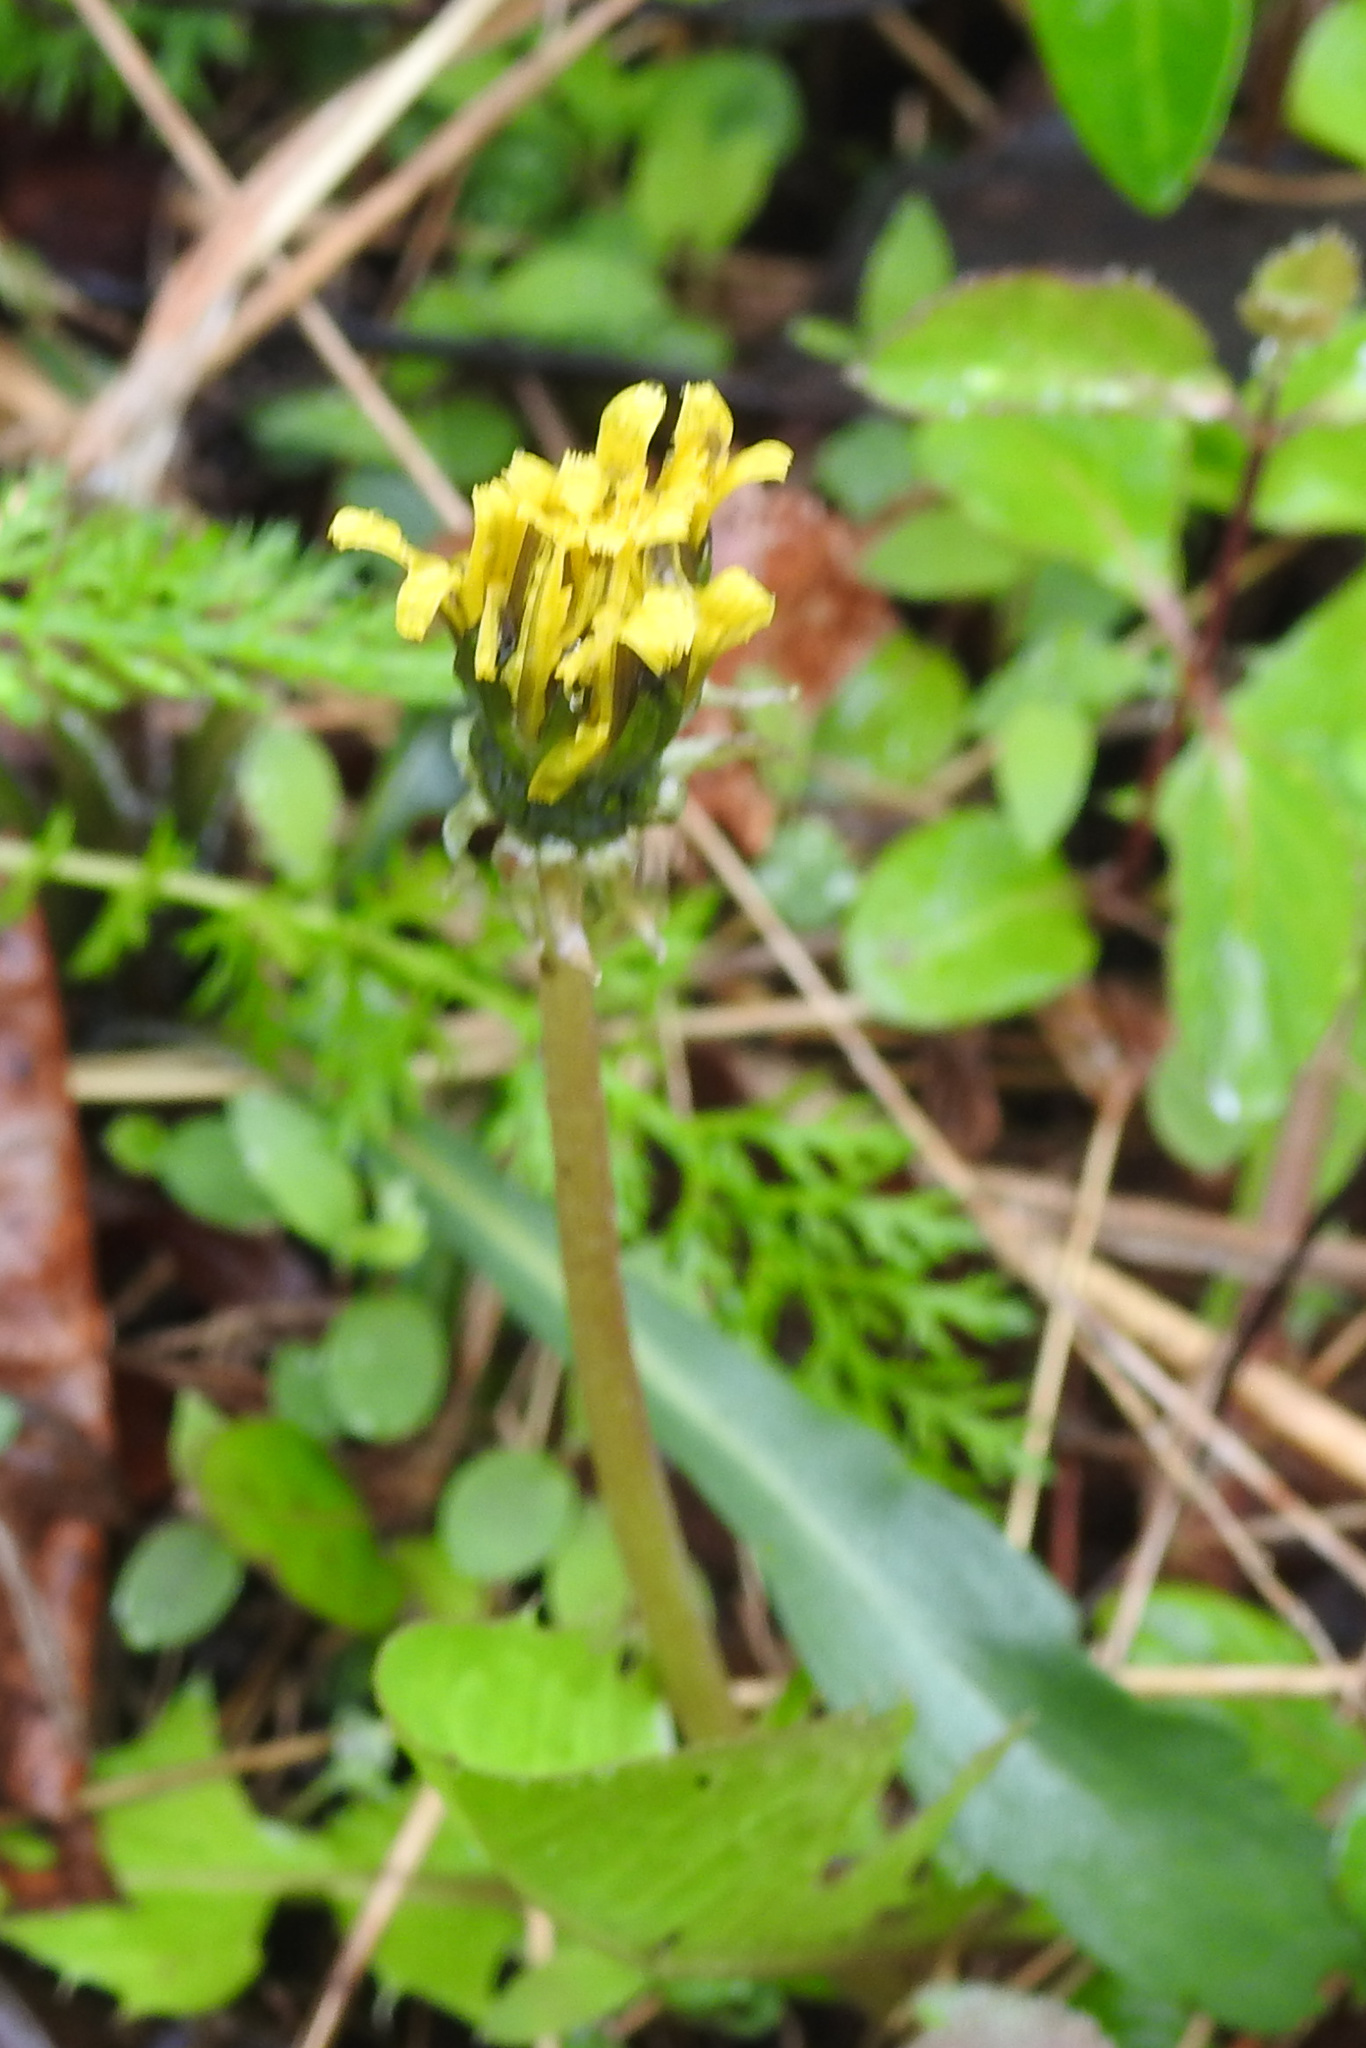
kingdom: Plantae
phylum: Tracheophyta
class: Magnoliopsida
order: Asterales
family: Asteraceae
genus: Taraxacum
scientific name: Taraxacum officinale
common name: Common dandelion
